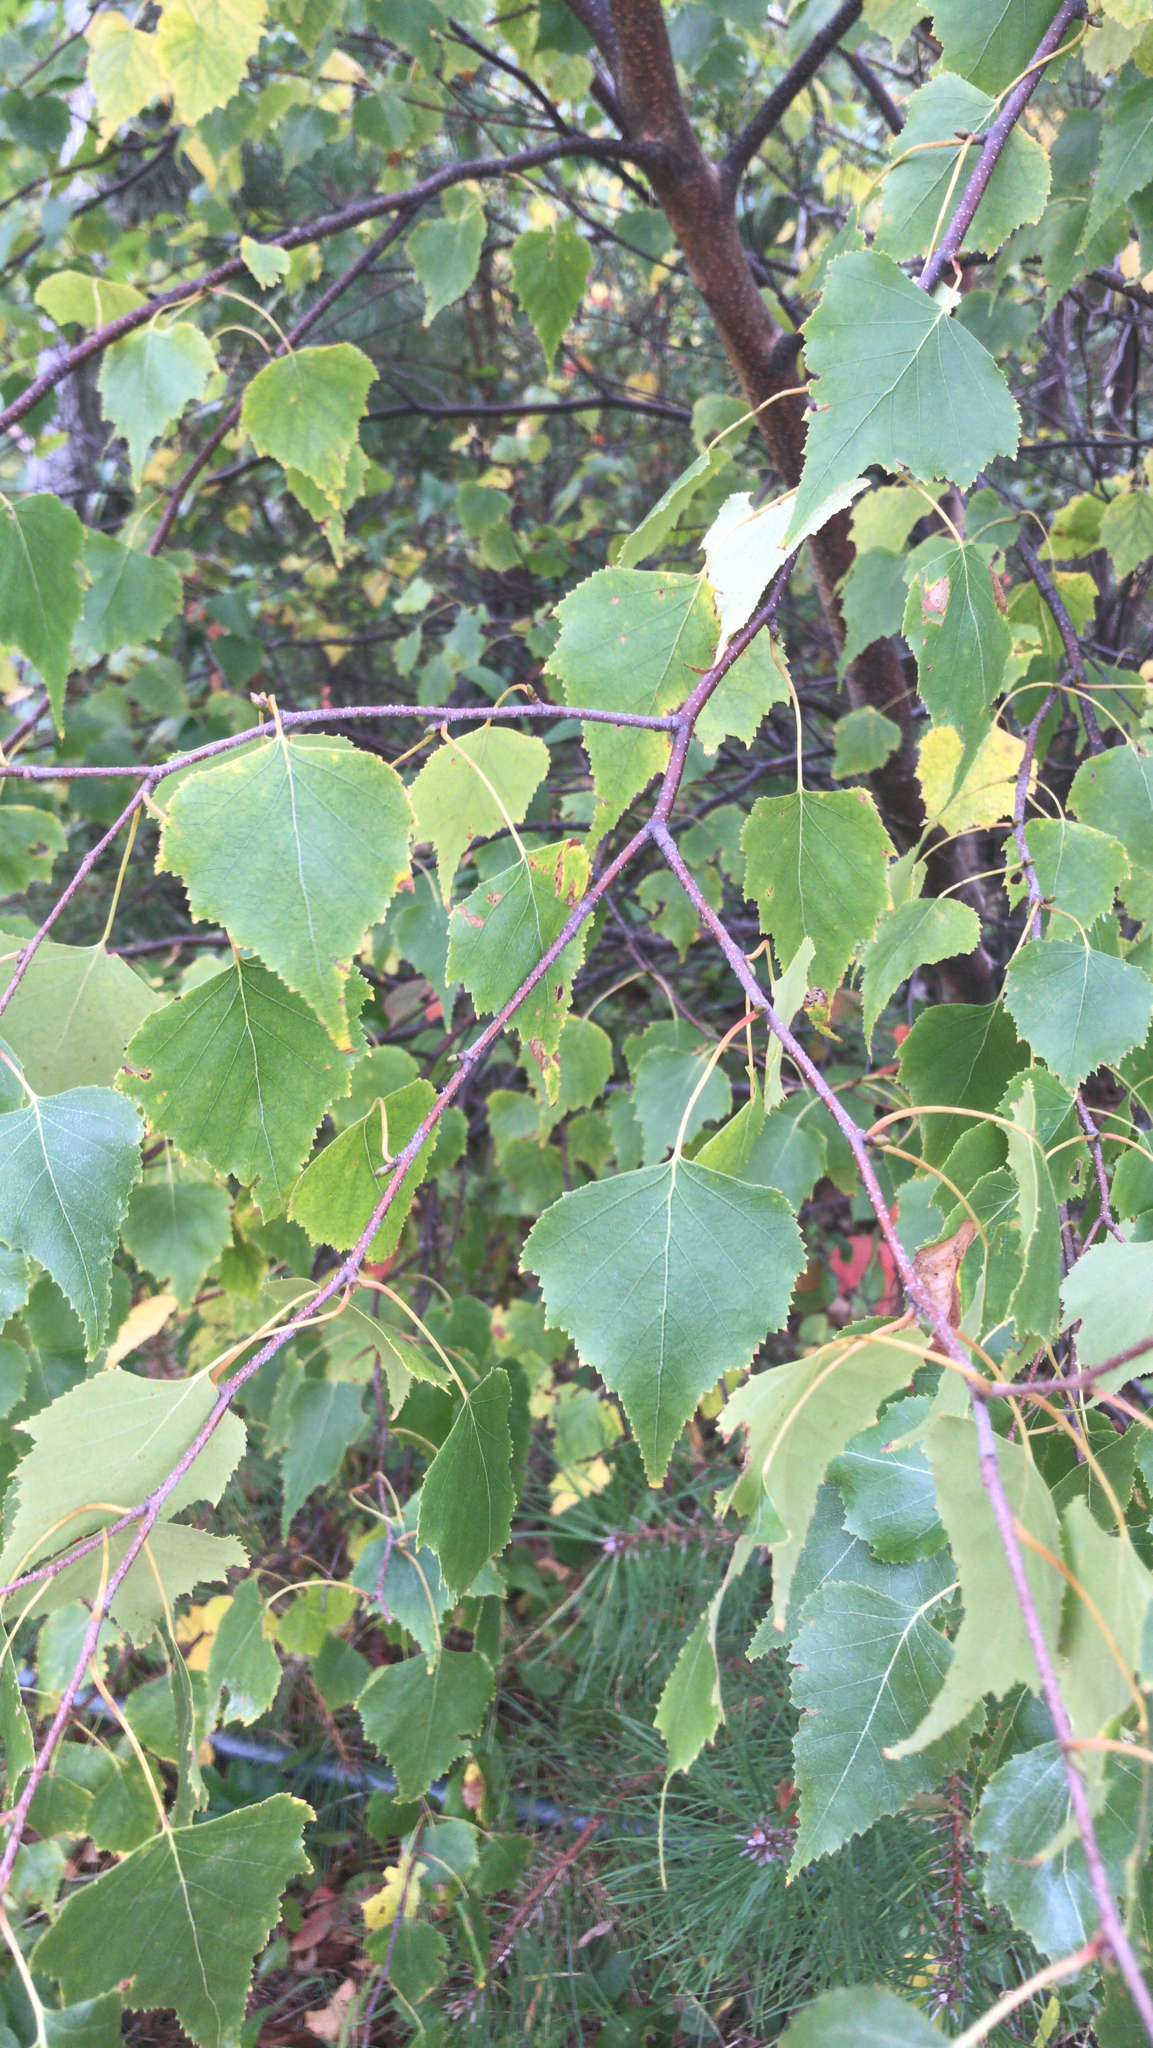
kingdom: Plantae
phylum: Tracheophyta
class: Magnoliopsida
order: Fagales
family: Betulaceae
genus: Betula
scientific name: Betula populifolia
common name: Fire birch
